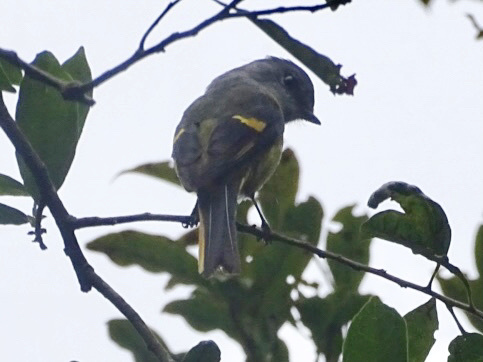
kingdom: Animalia
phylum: Chordata
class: Aves
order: Passeriformes
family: Campephagidae
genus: Pericrocotus
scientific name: Pericrocotus solaris
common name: Grey-chinned minivet
